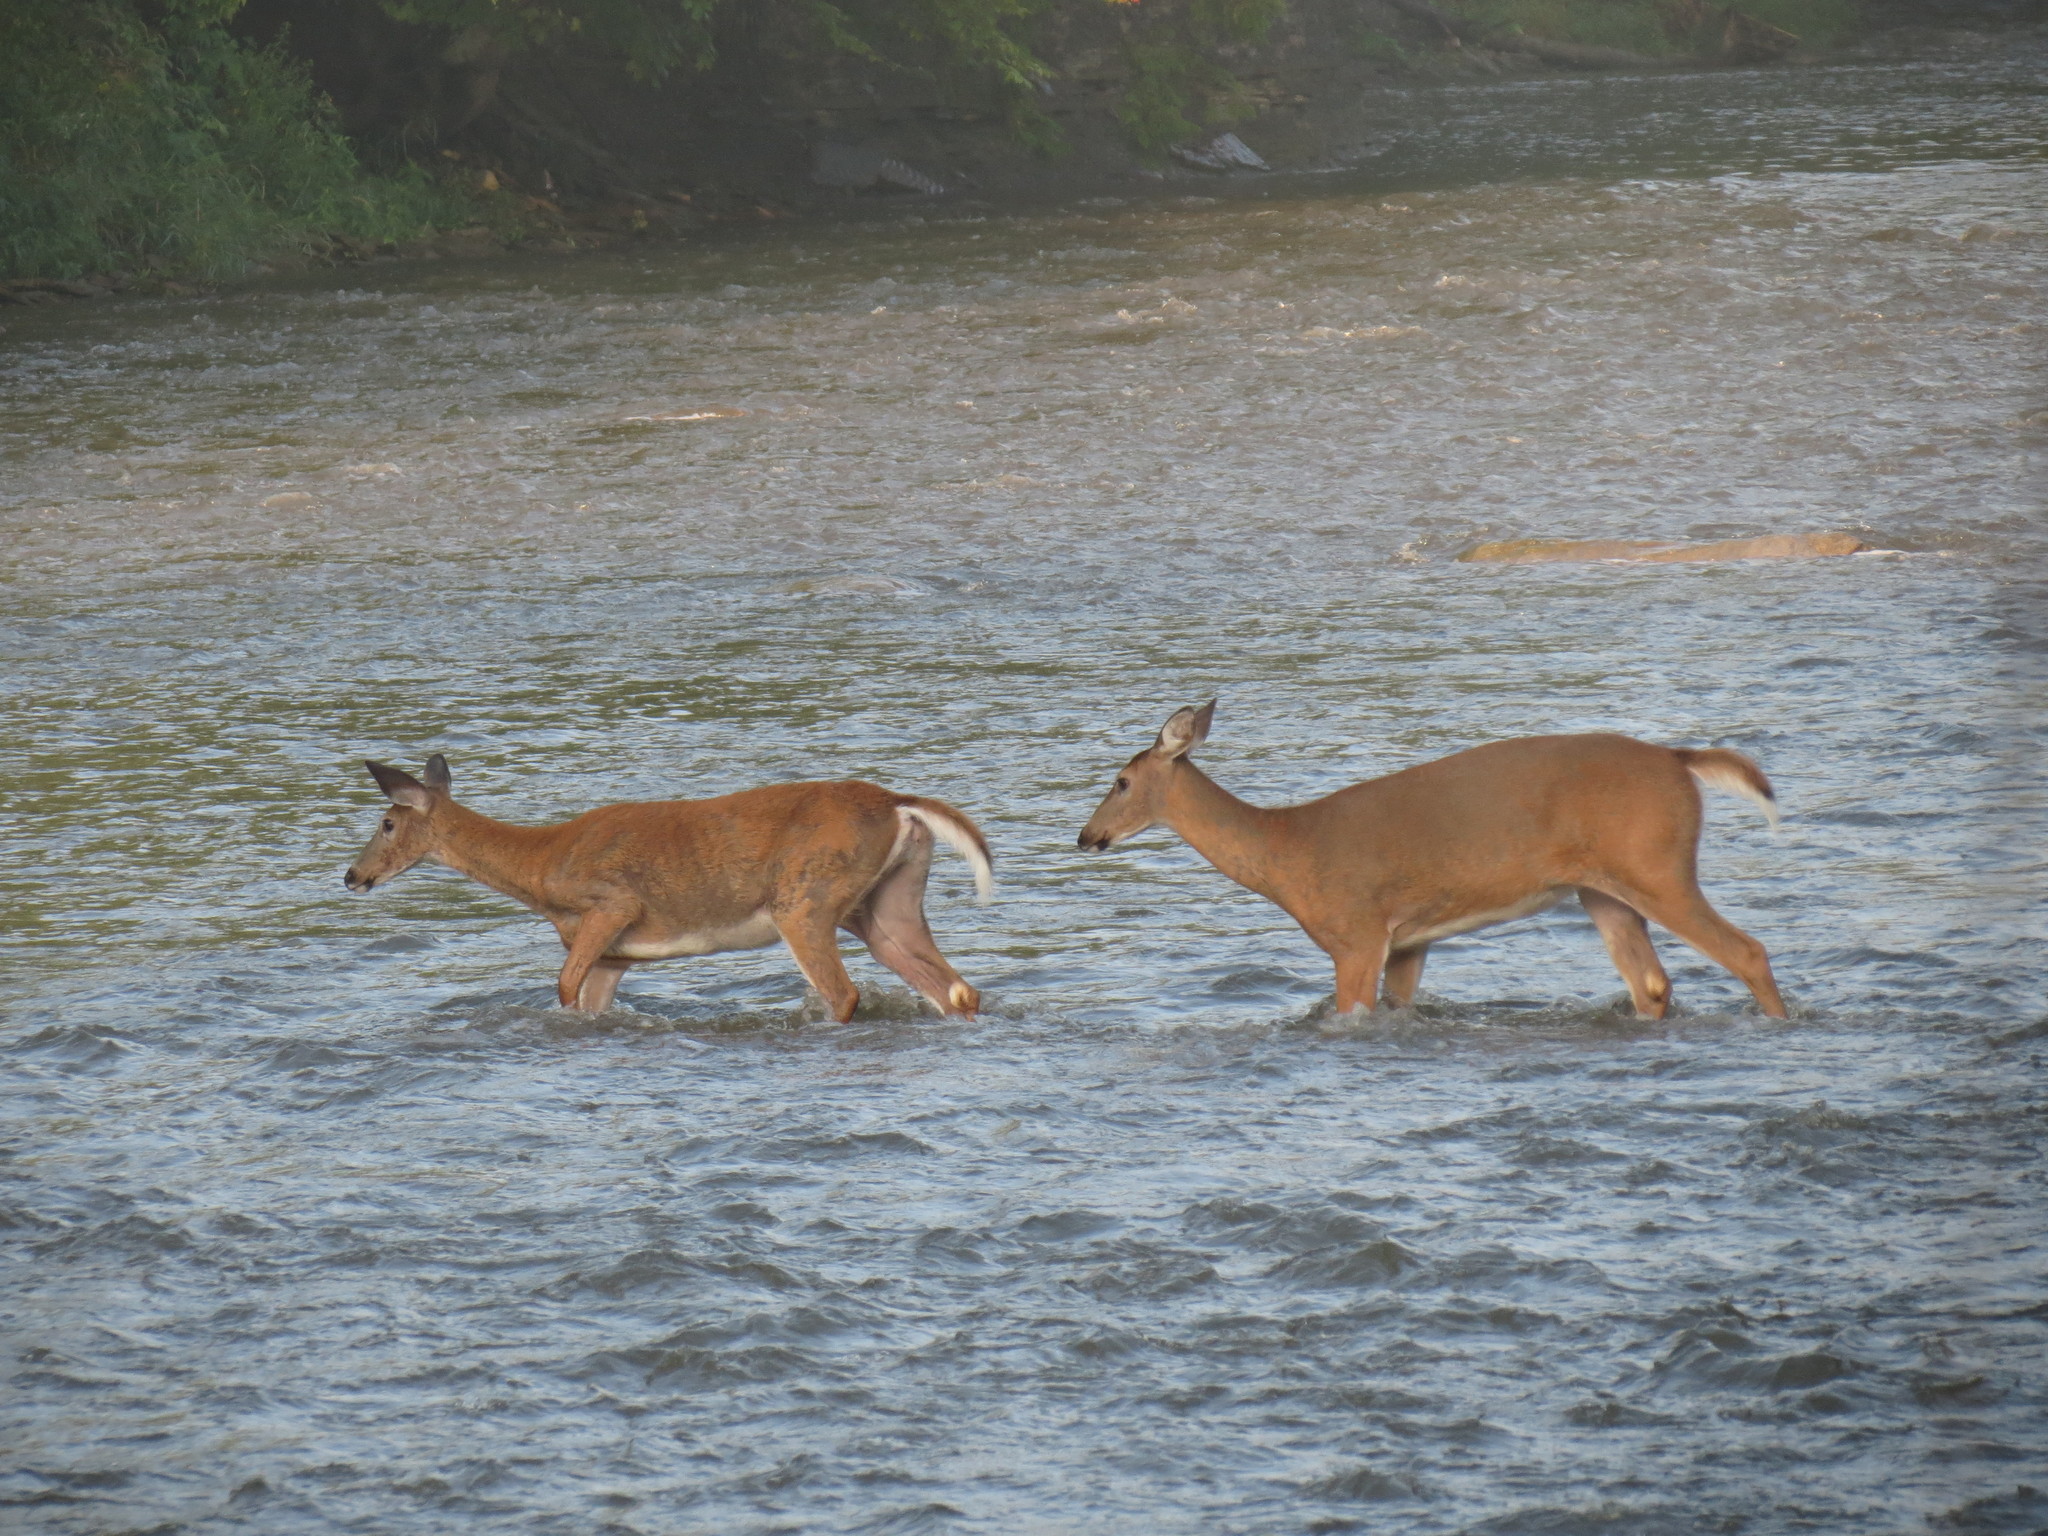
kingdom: Animalia
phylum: Chordata
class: Mammalia
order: Artiodactyla
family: Cervidae
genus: Odocoileus
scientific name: Odocoileus virginianus
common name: White-tailed deer
